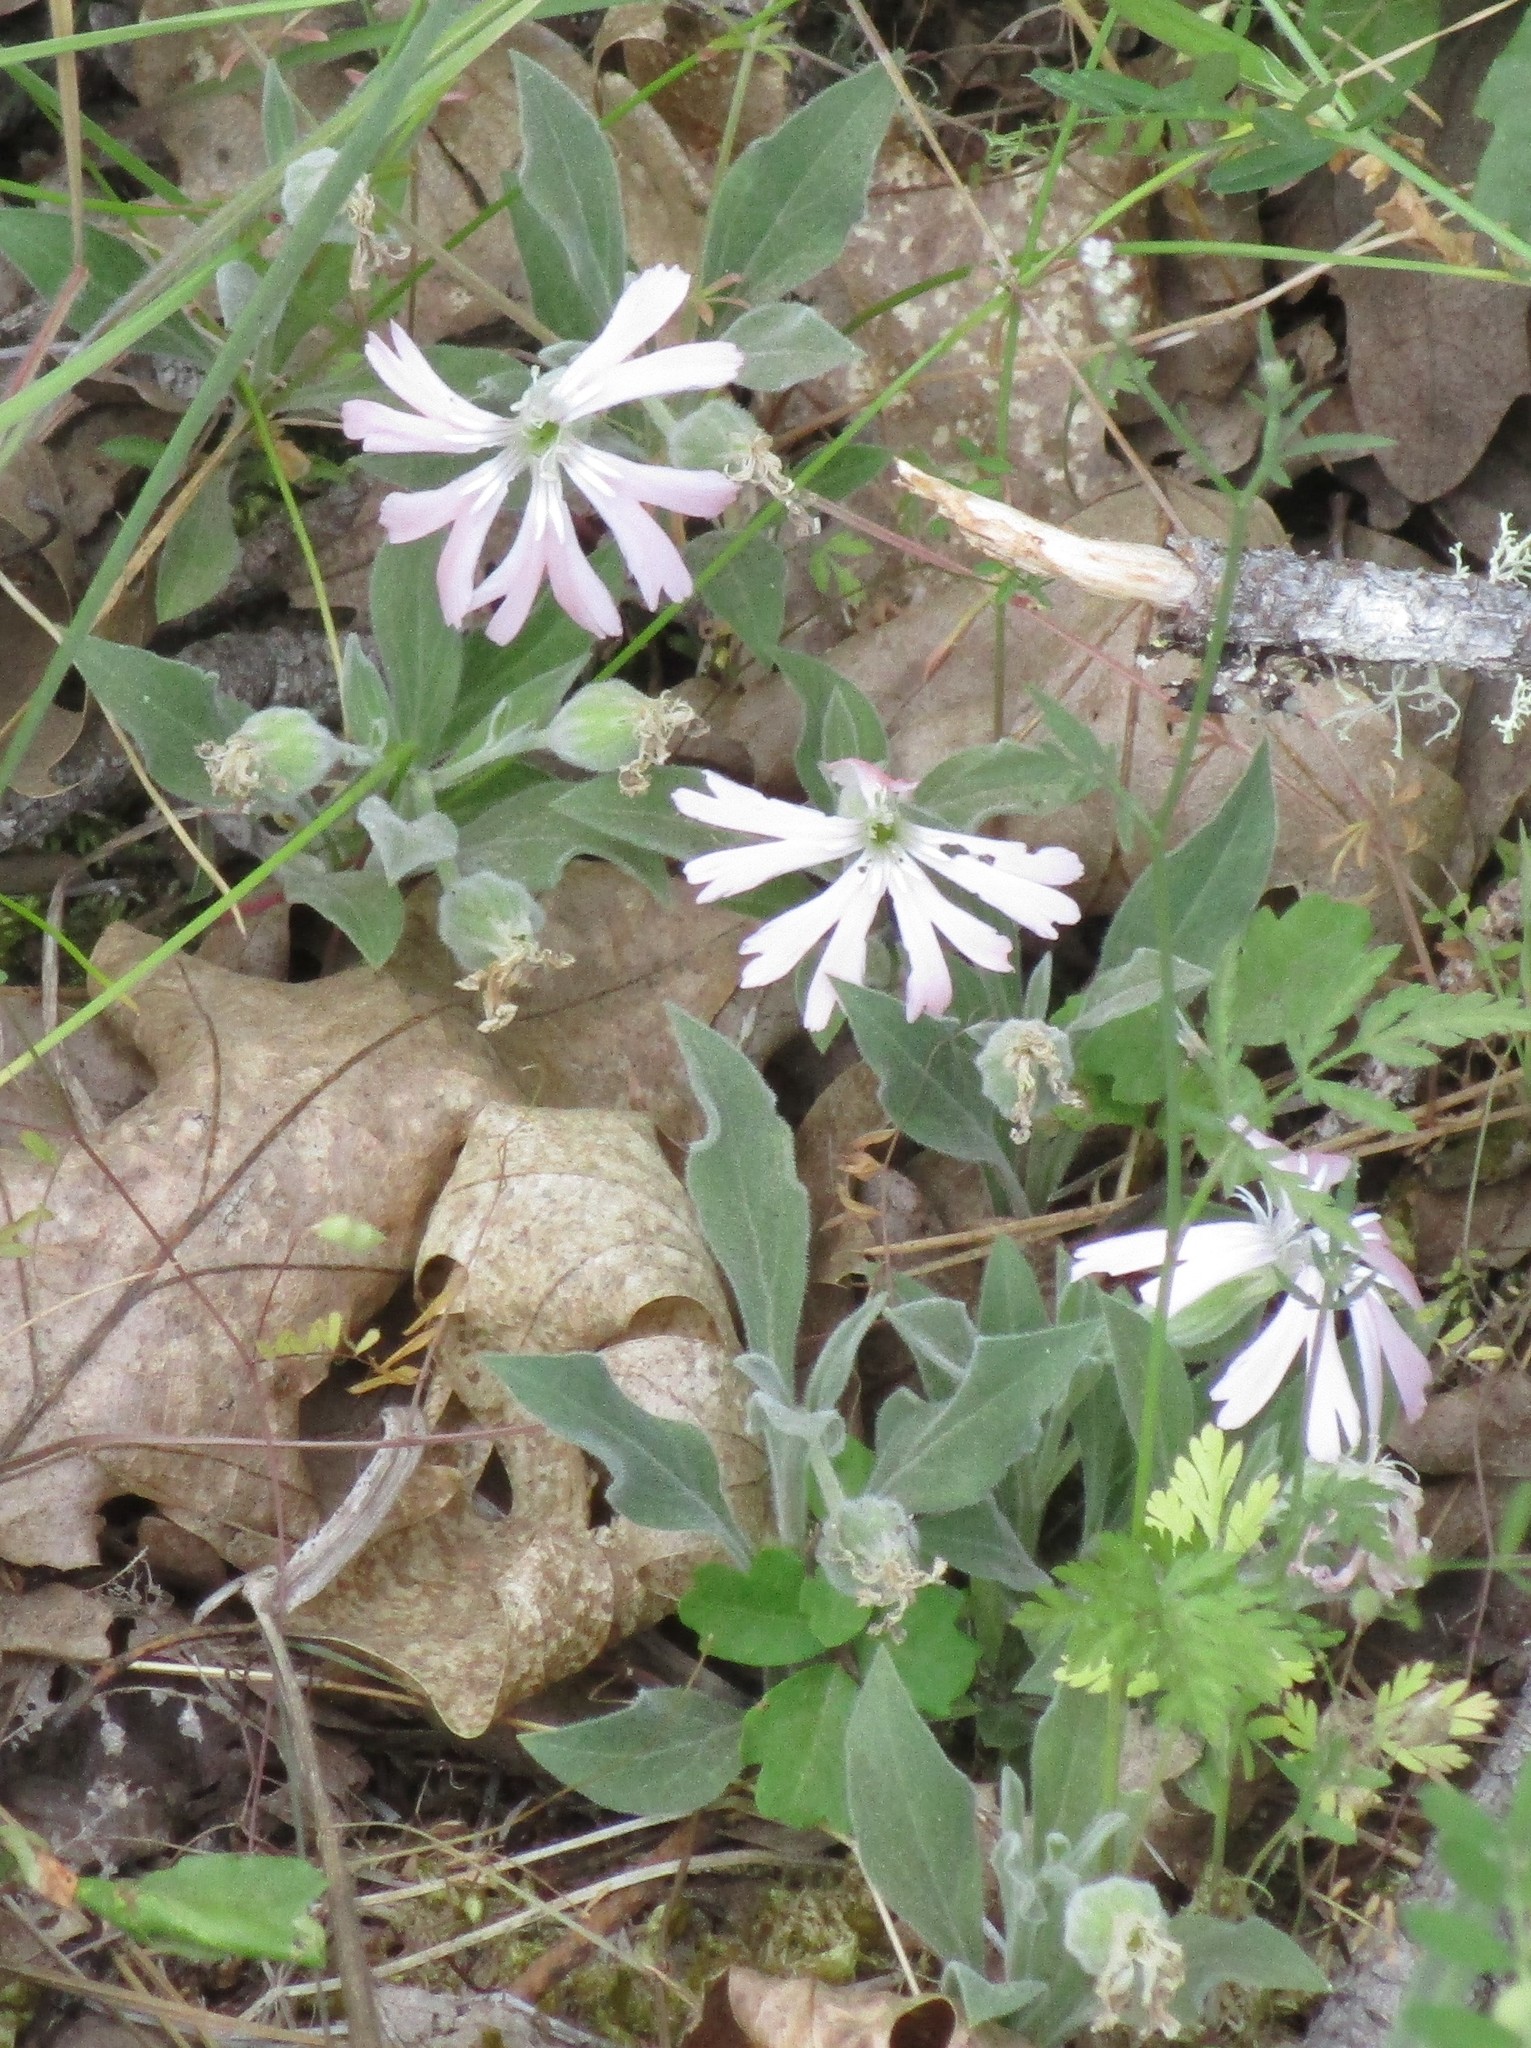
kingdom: Plantae
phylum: Tracheophyta
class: Magnoliopsida
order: Caryophyllales
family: Caryophyllaceae
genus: Silene
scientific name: Silene hookeri
